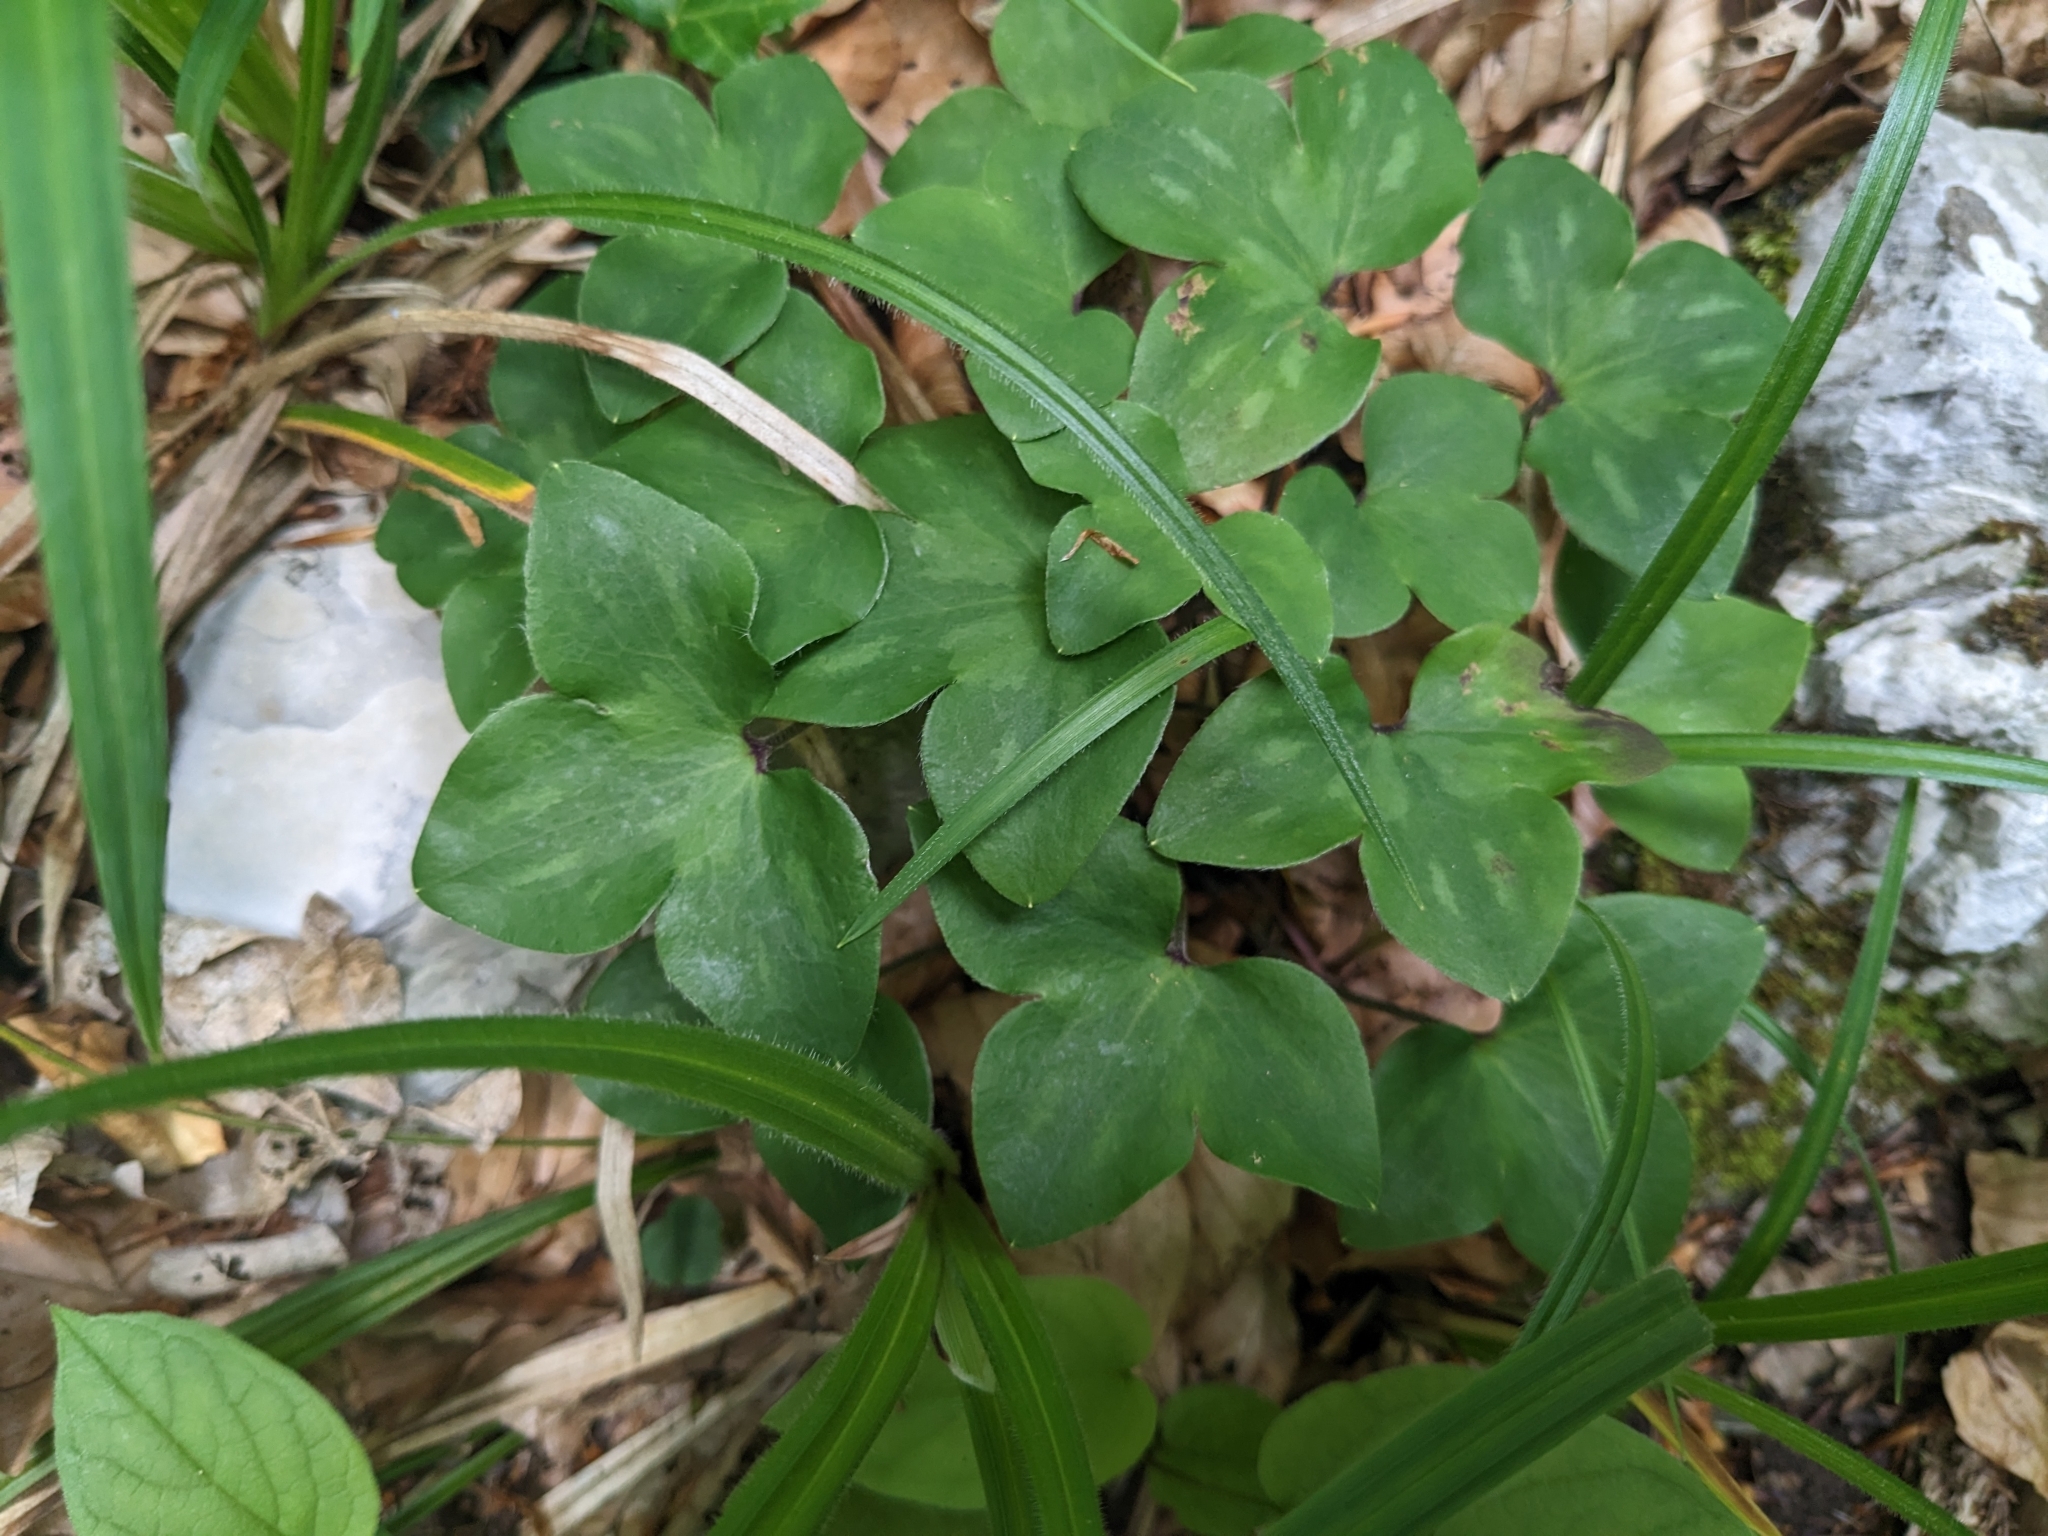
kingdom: Plantae
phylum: Tracheophyta
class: Magnoliopsida
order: Ranunculales
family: Ranunculaceae
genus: Hepatica
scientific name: Hepatica nobilis
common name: Liverleaf
